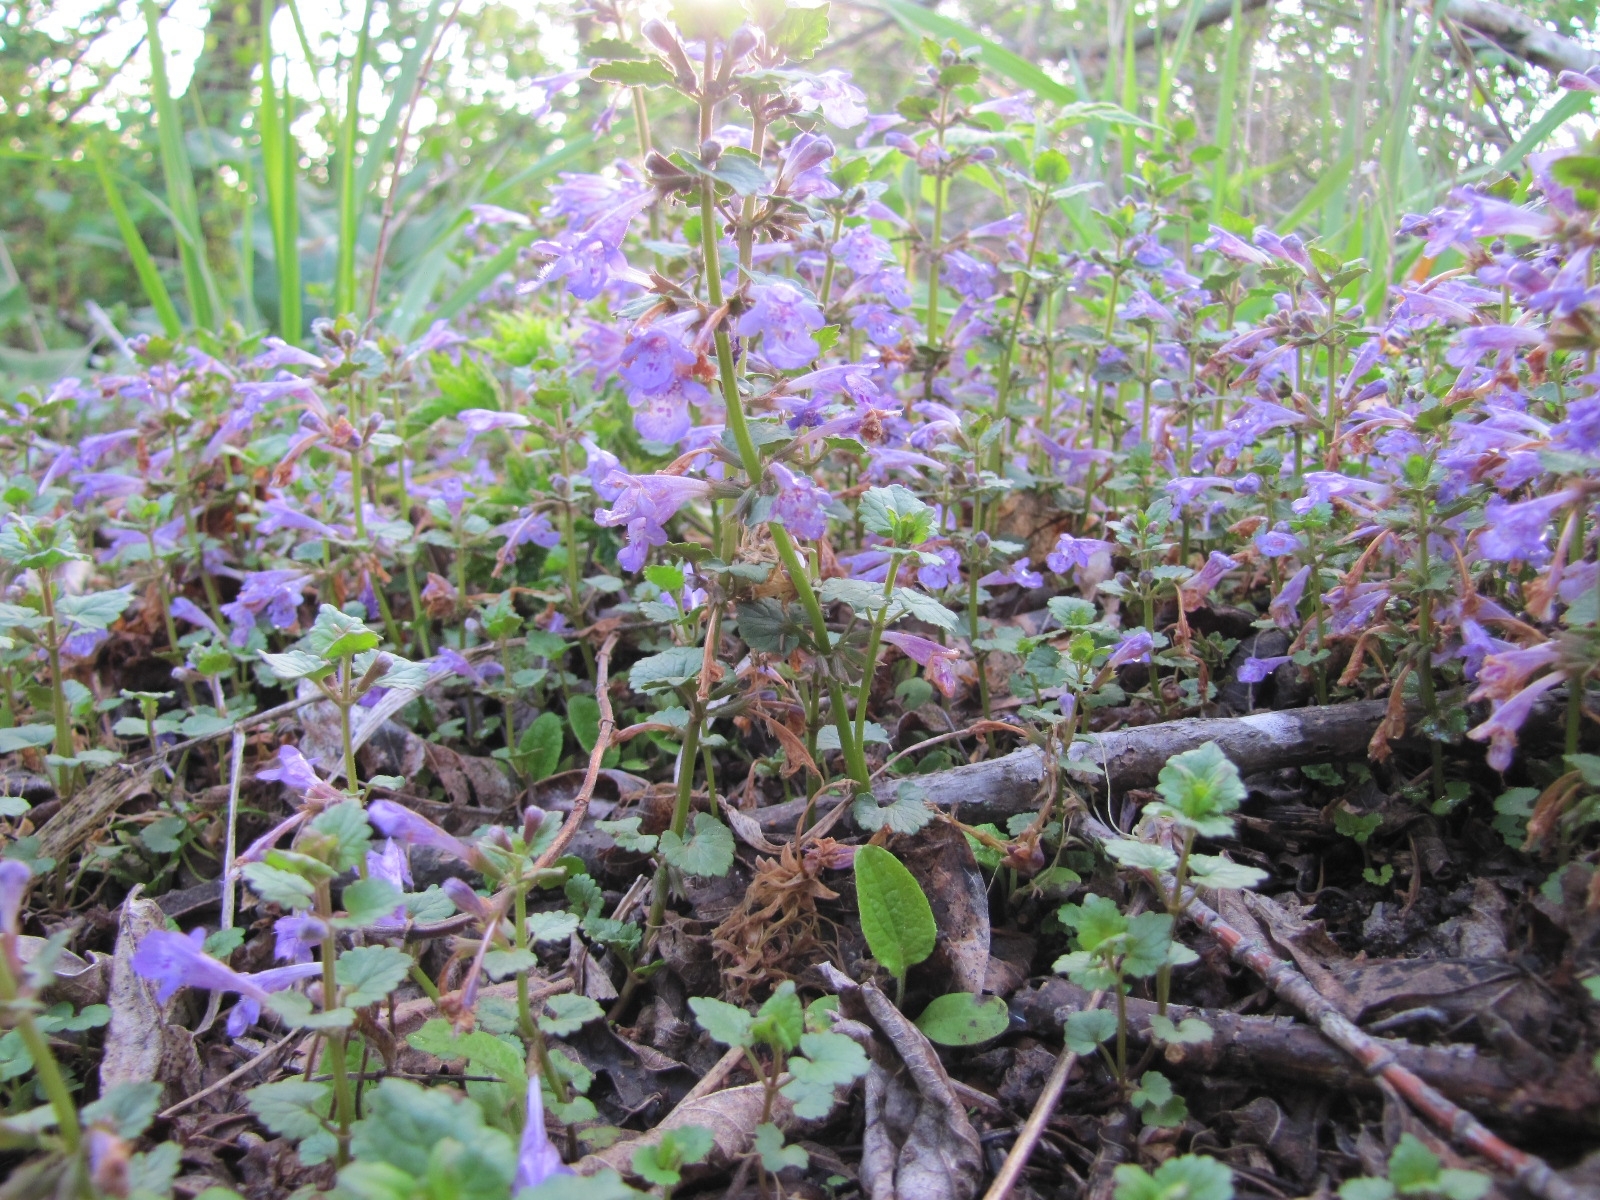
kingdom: Plantae
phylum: Tracheophyta
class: Magnoliopsida
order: Lamiales
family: Lamiaceae
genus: Glechoma
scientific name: Glechoma hederacea
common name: Ground ivy
